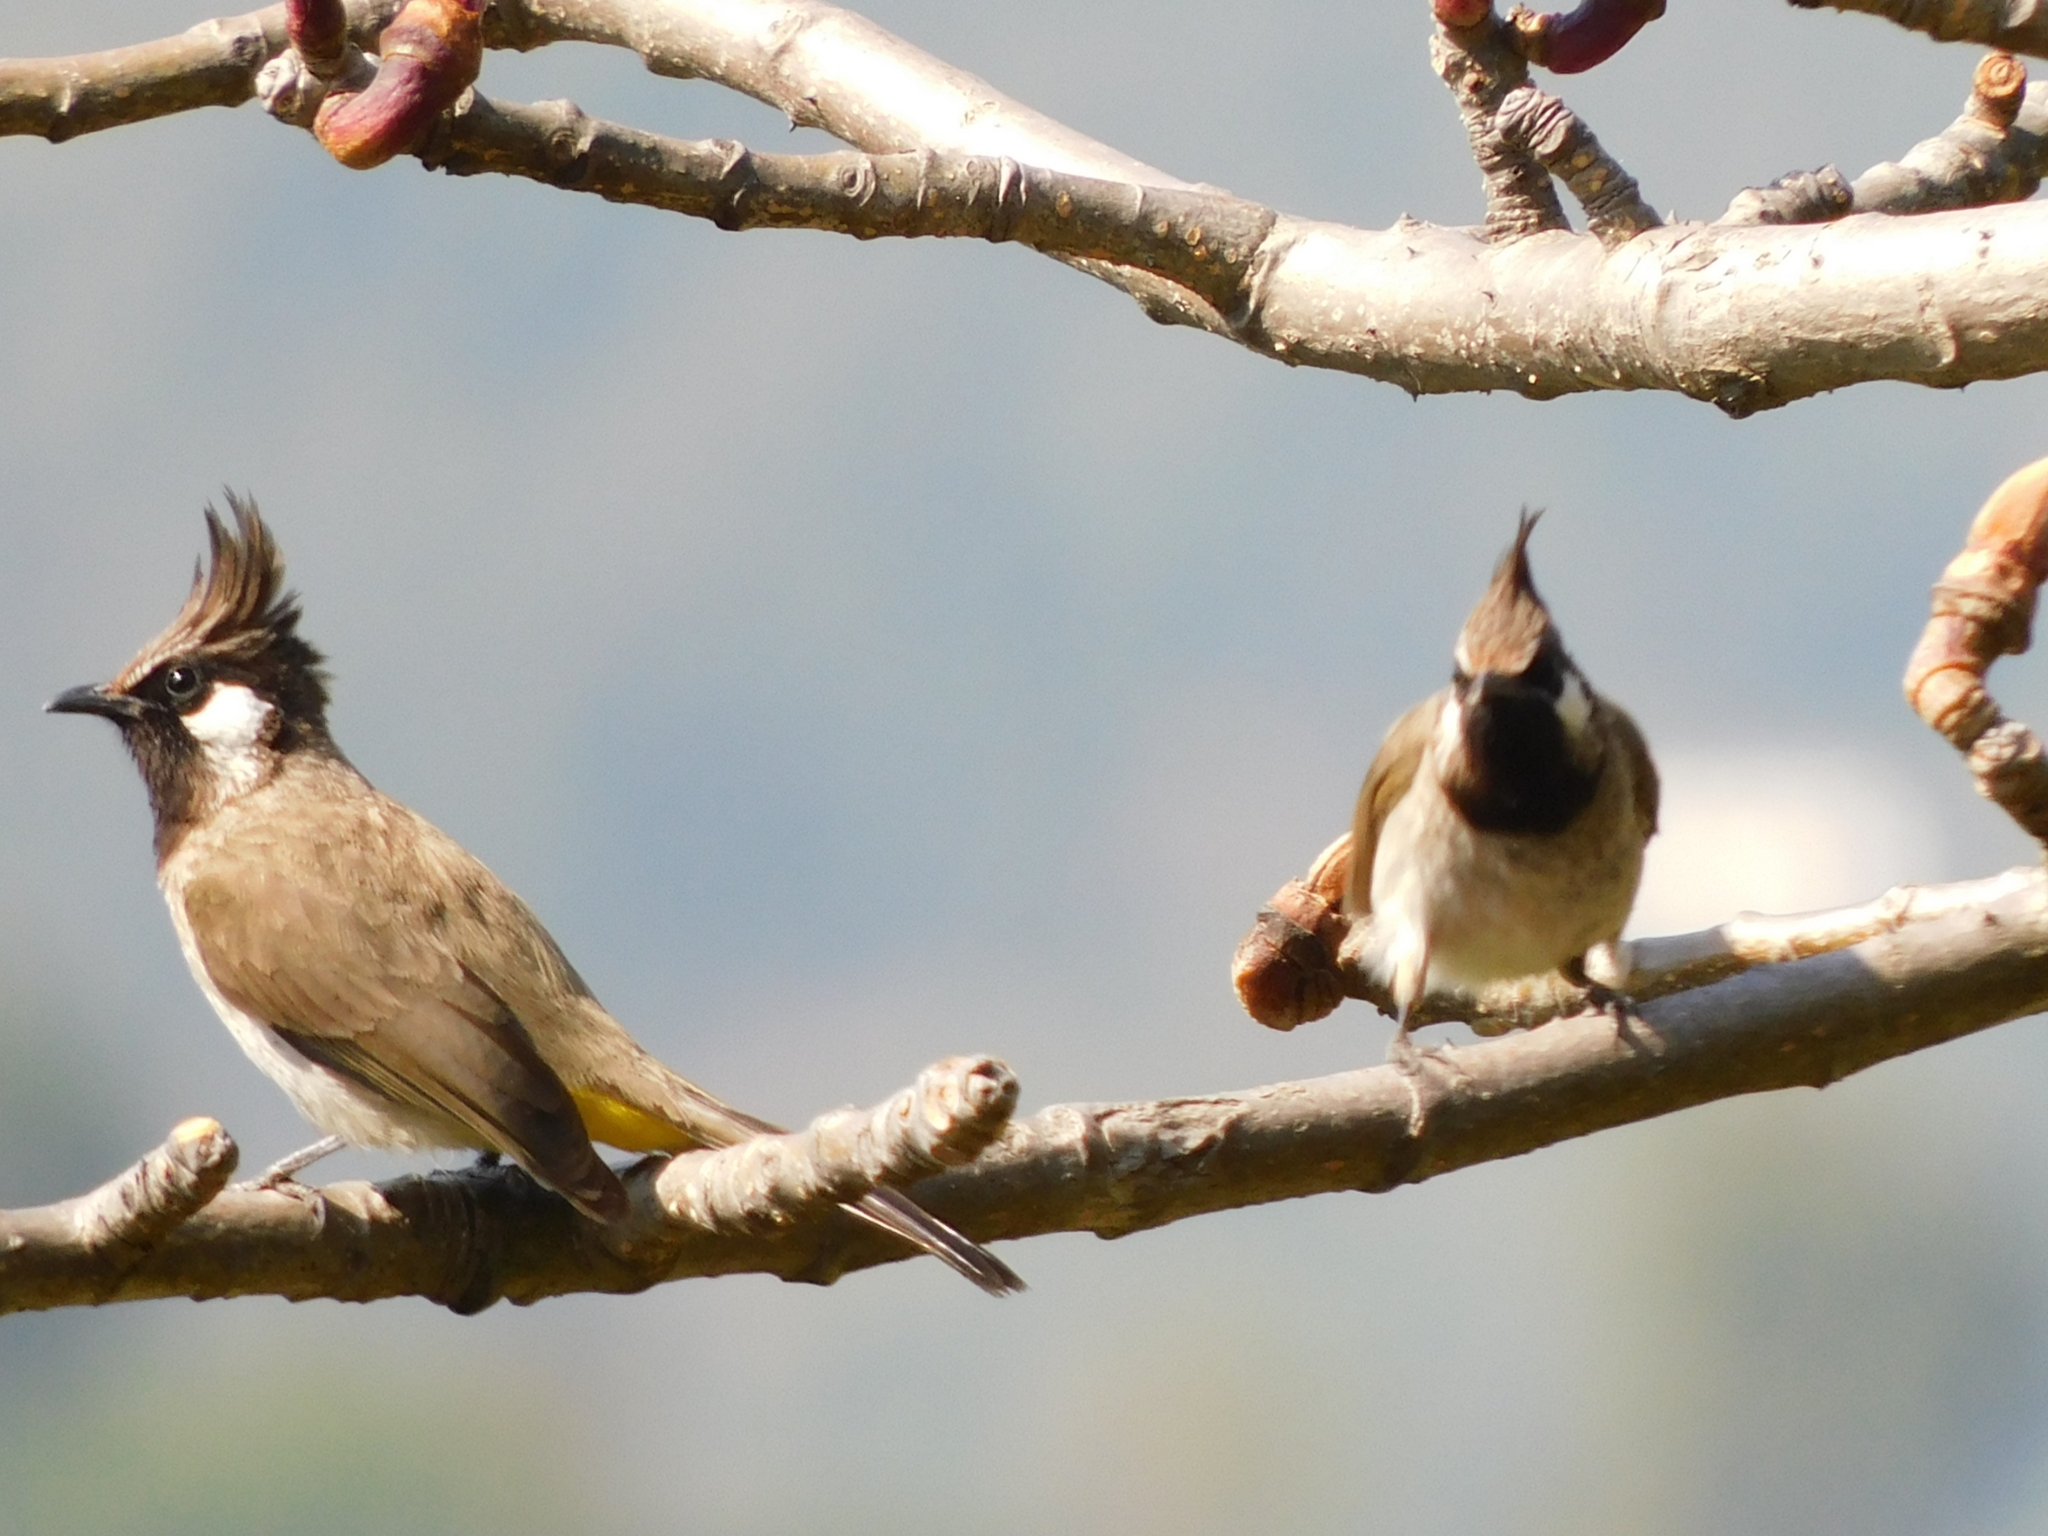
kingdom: Animalia
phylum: Chordata
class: Aves
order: Passeriformes
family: Pycnonotidae
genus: Pycnonotus
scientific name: Pycnonotus leucogenys
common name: Himalayan bulbul
